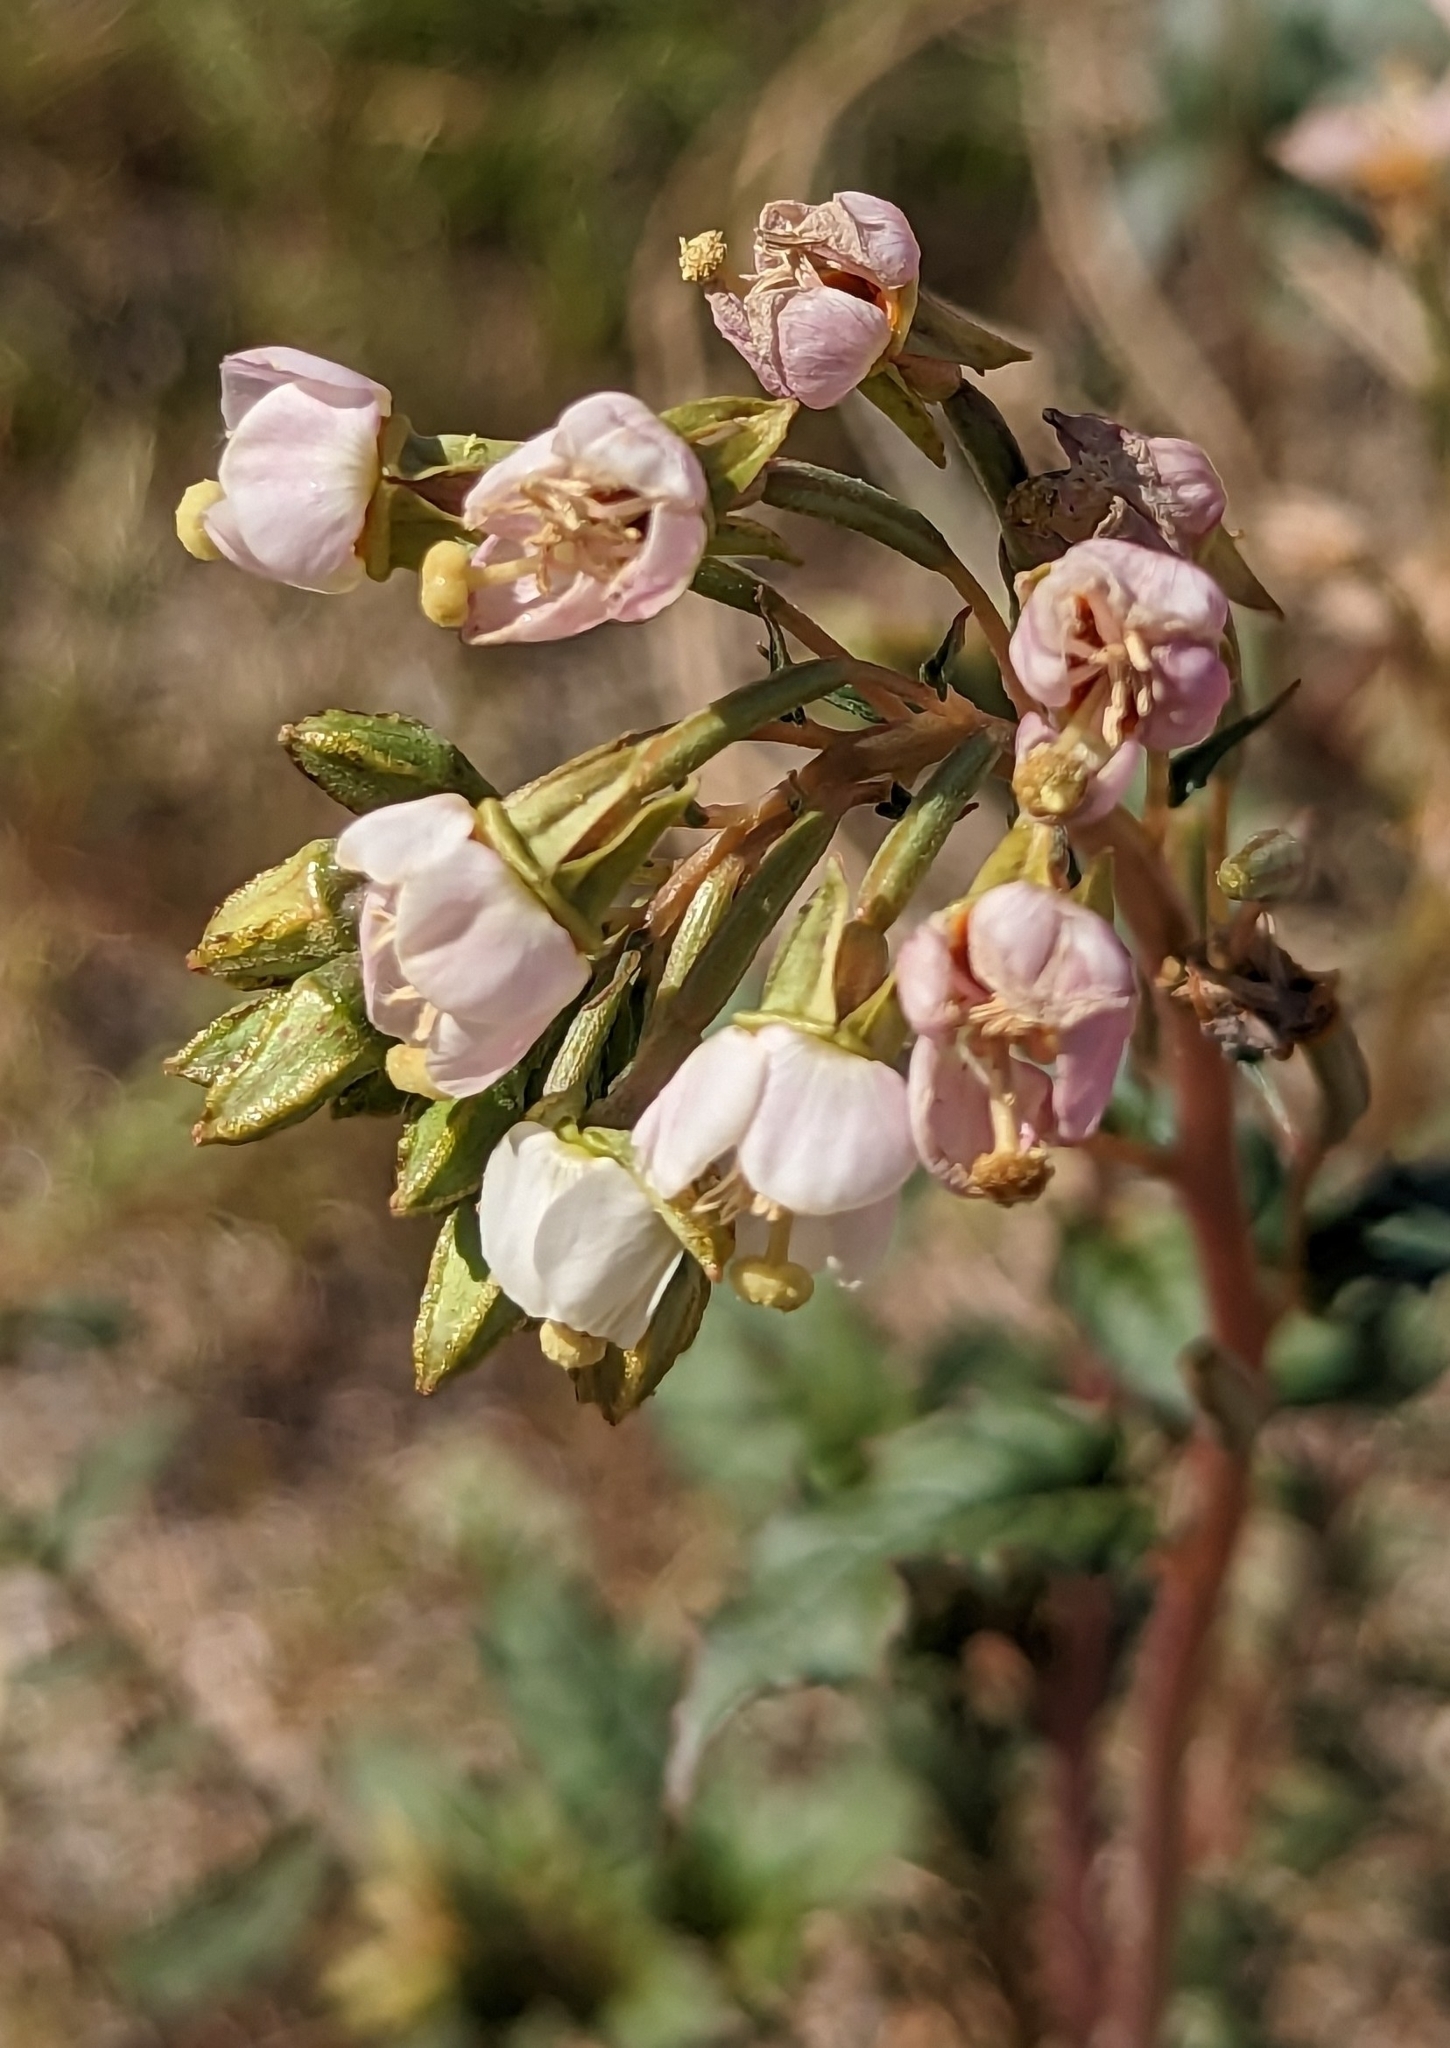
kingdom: Plantae
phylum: Tracheophyta
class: Magnoliopsida
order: Myrtales
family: Onagraceae
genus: Chylismia
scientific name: Chylismia claviformis
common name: Browneyes
